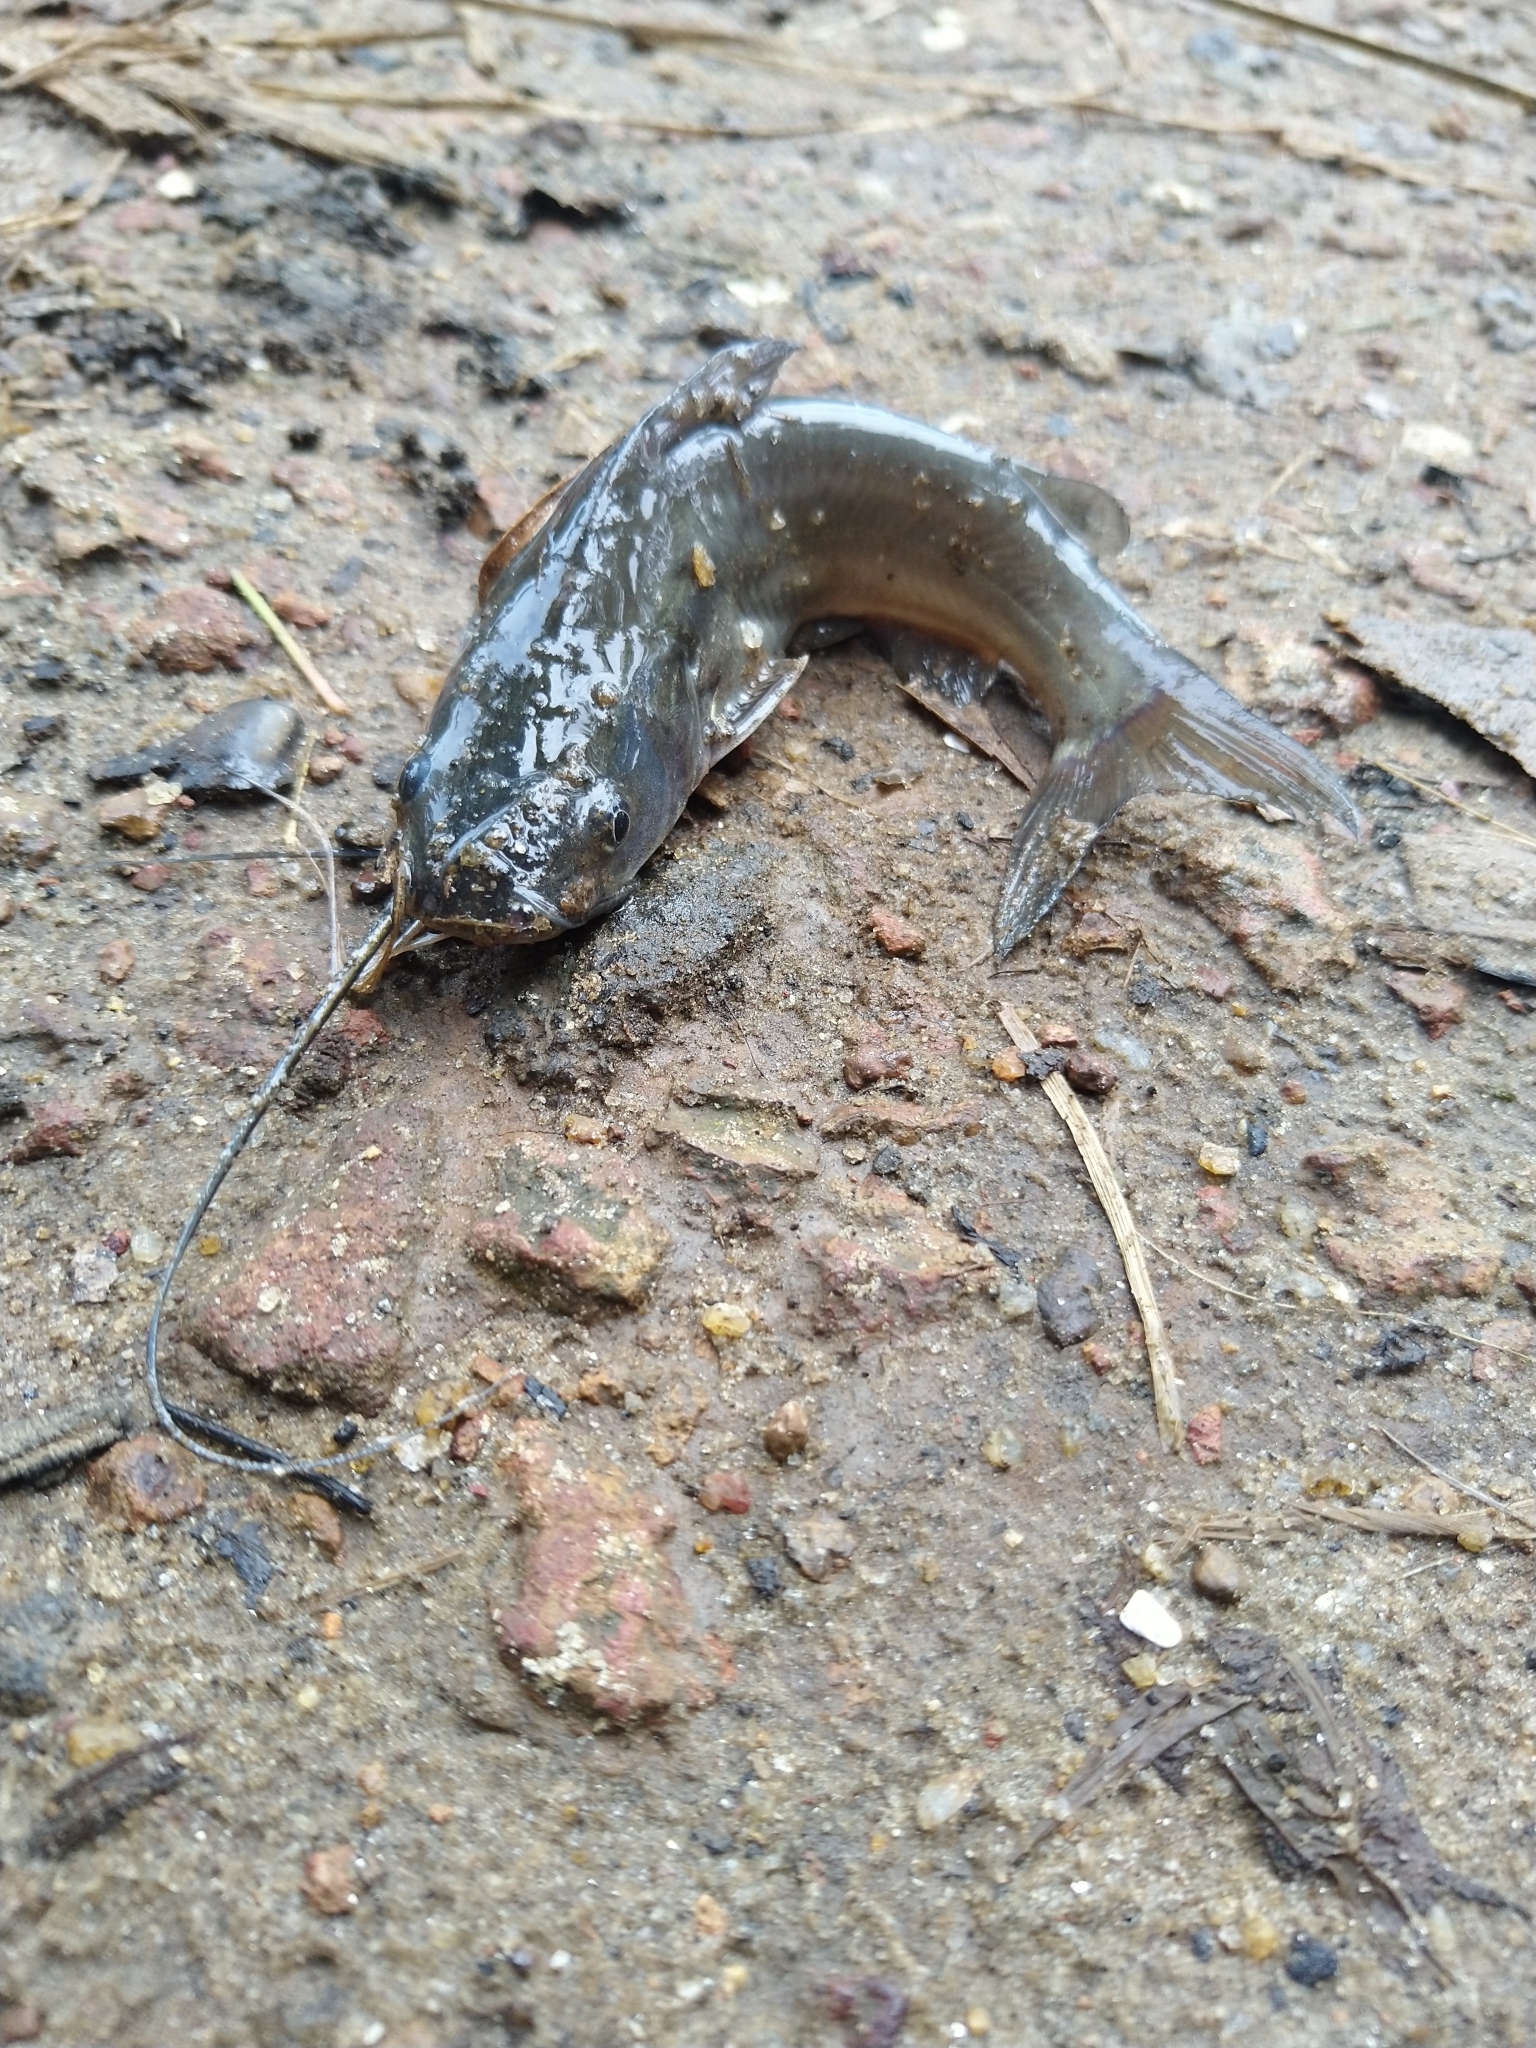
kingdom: Animalia
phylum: Chordata
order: Siluriformes
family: Bagridae
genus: Mystus
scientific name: Mystus gulio
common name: Long whiskers catfish
